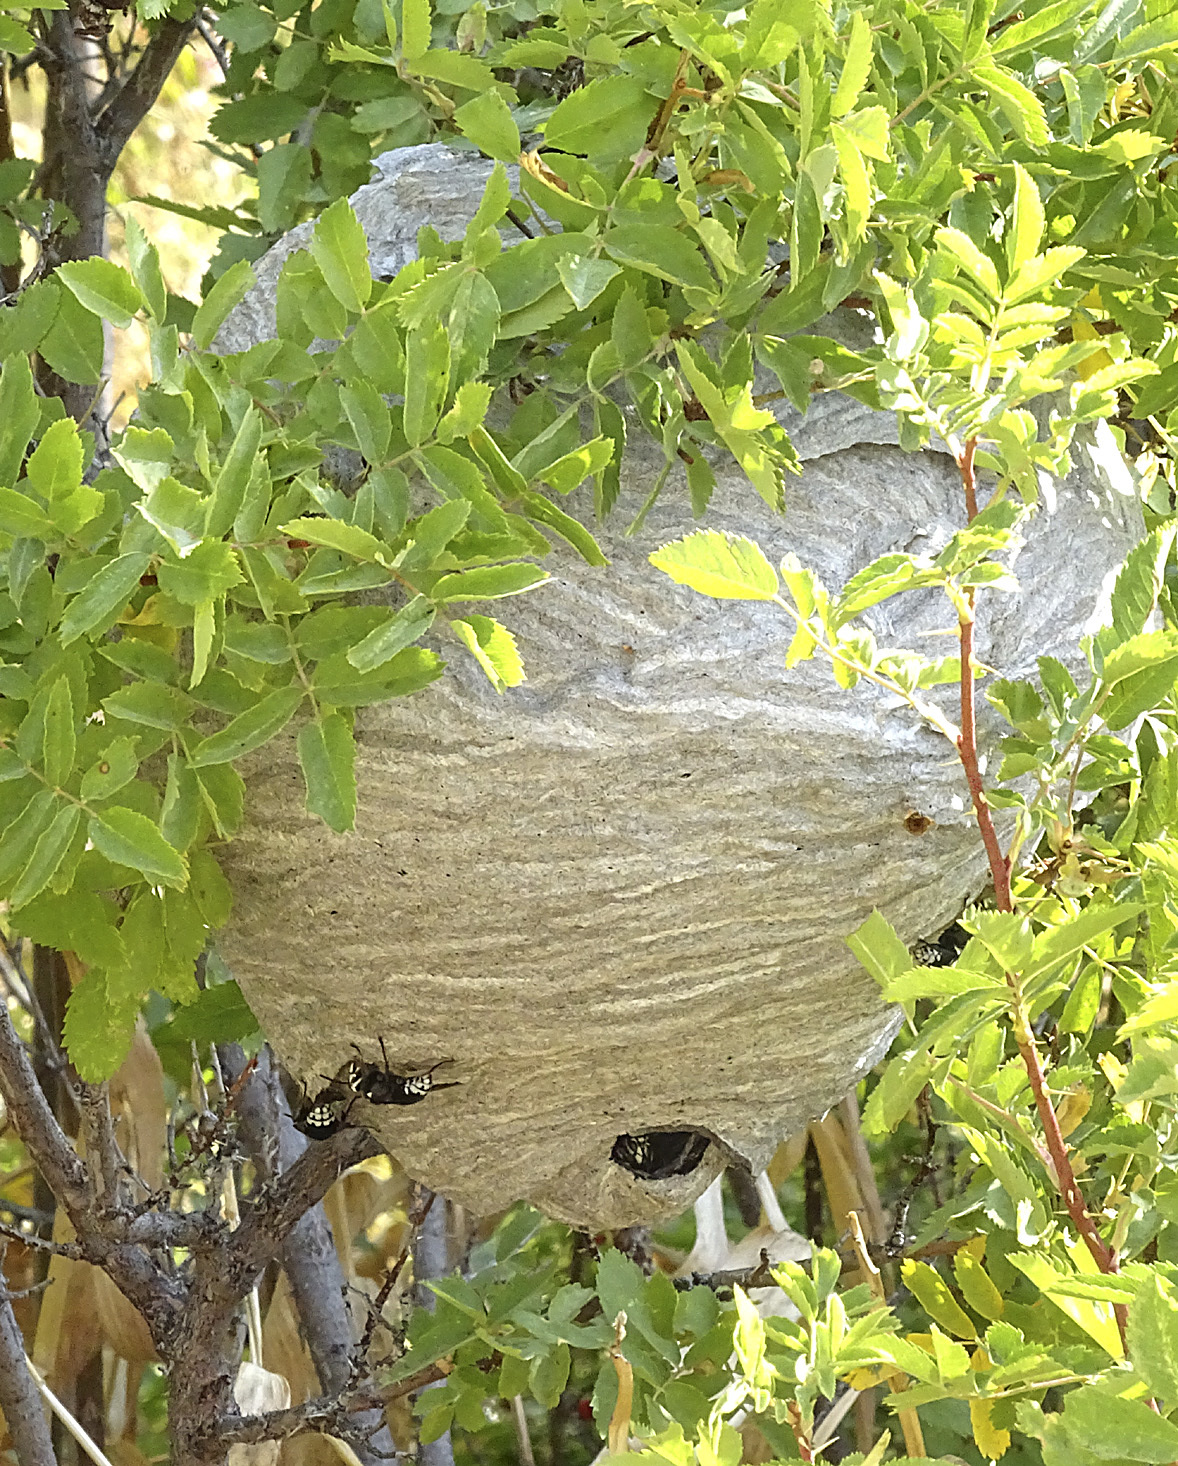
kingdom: Animalia
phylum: Arthropoda
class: Insecta
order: Hymenoptera
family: Vespidae
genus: Dolichovespula
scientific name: Dolichovespula maculata
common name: Bald-faced hornet
